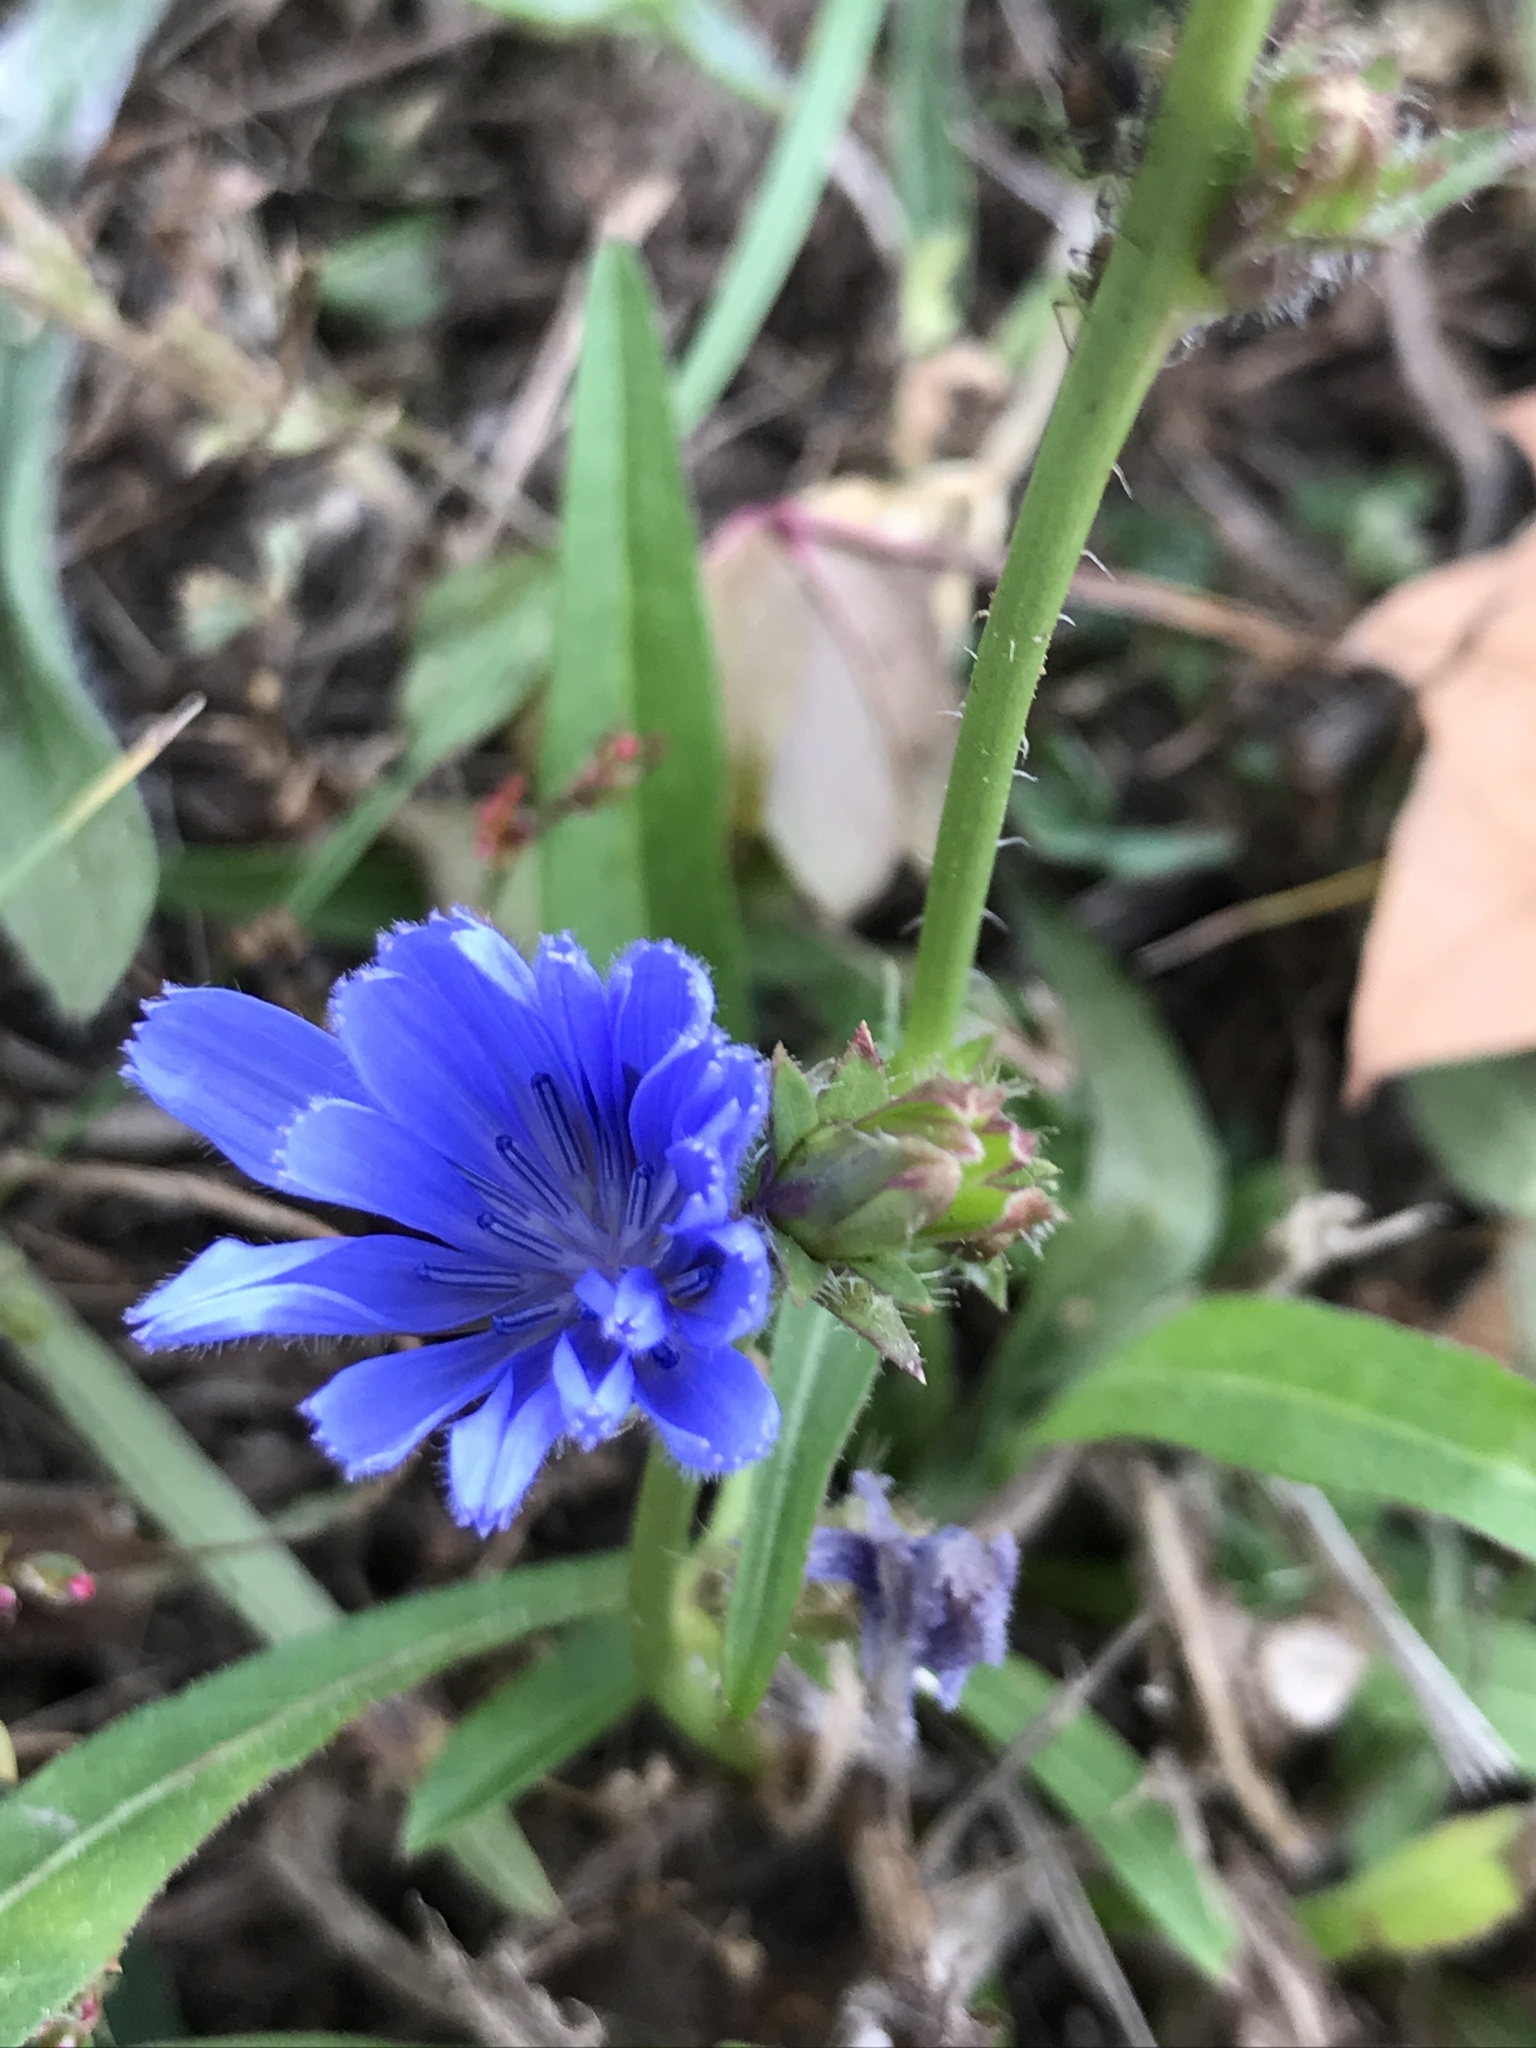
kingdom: Plantae
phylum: Tracheophyta
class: Magnoliopsida
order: Asterales
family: Asteraceae
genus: Cichorium
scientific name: Cichorium intybus
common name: Chicory
